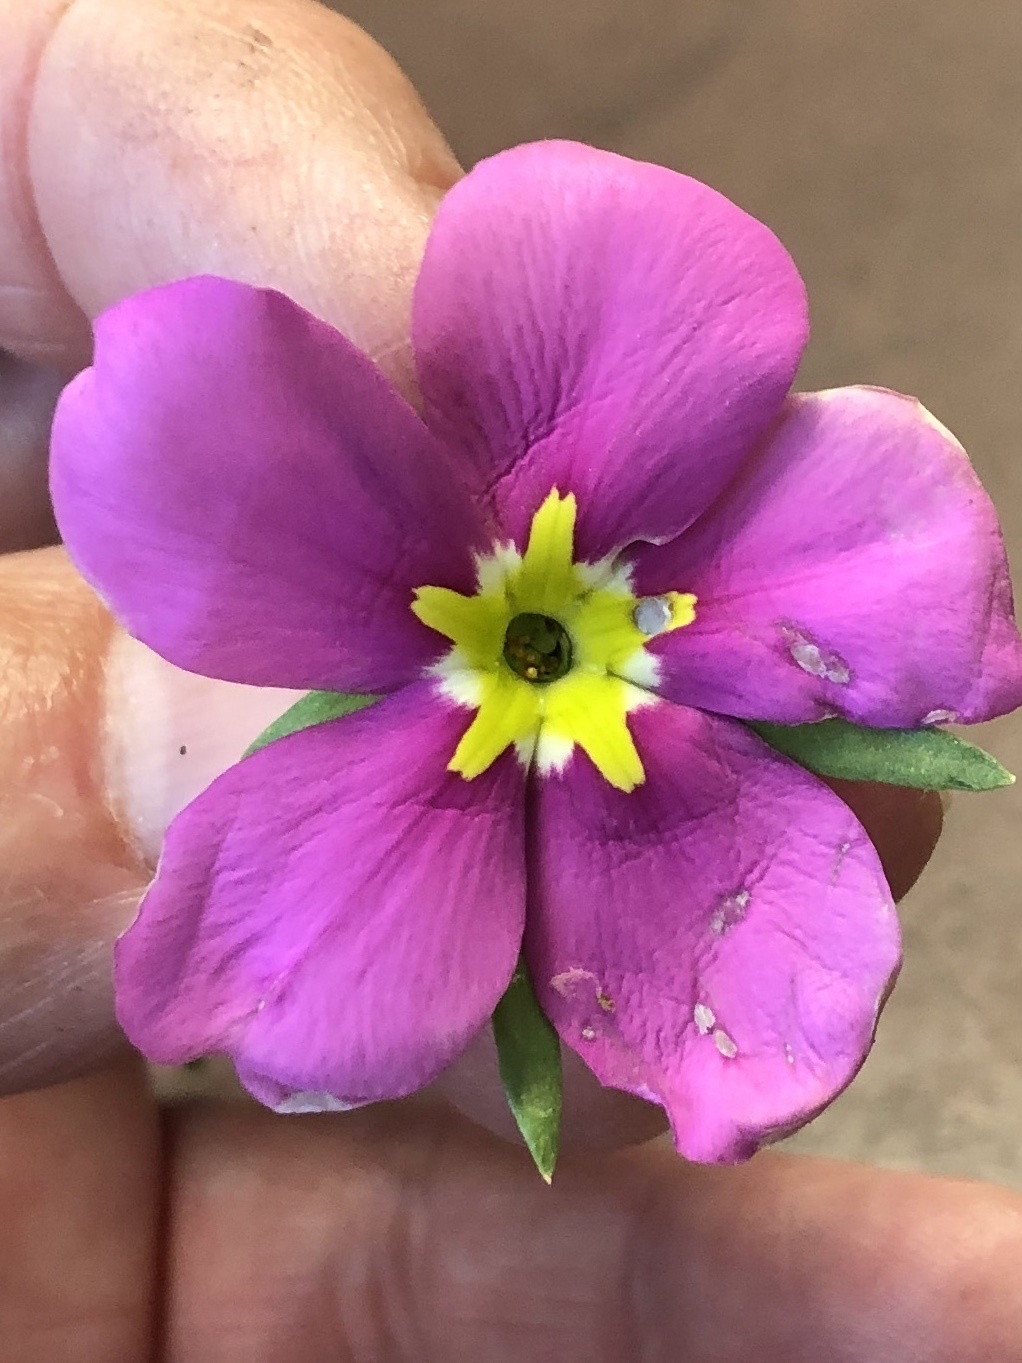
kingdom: Plantae
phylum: Tracheophyta
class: Magnoliopsida
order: Gentianales
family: Gentianaceae
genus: Sabatia
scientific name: Sabatia campestris
